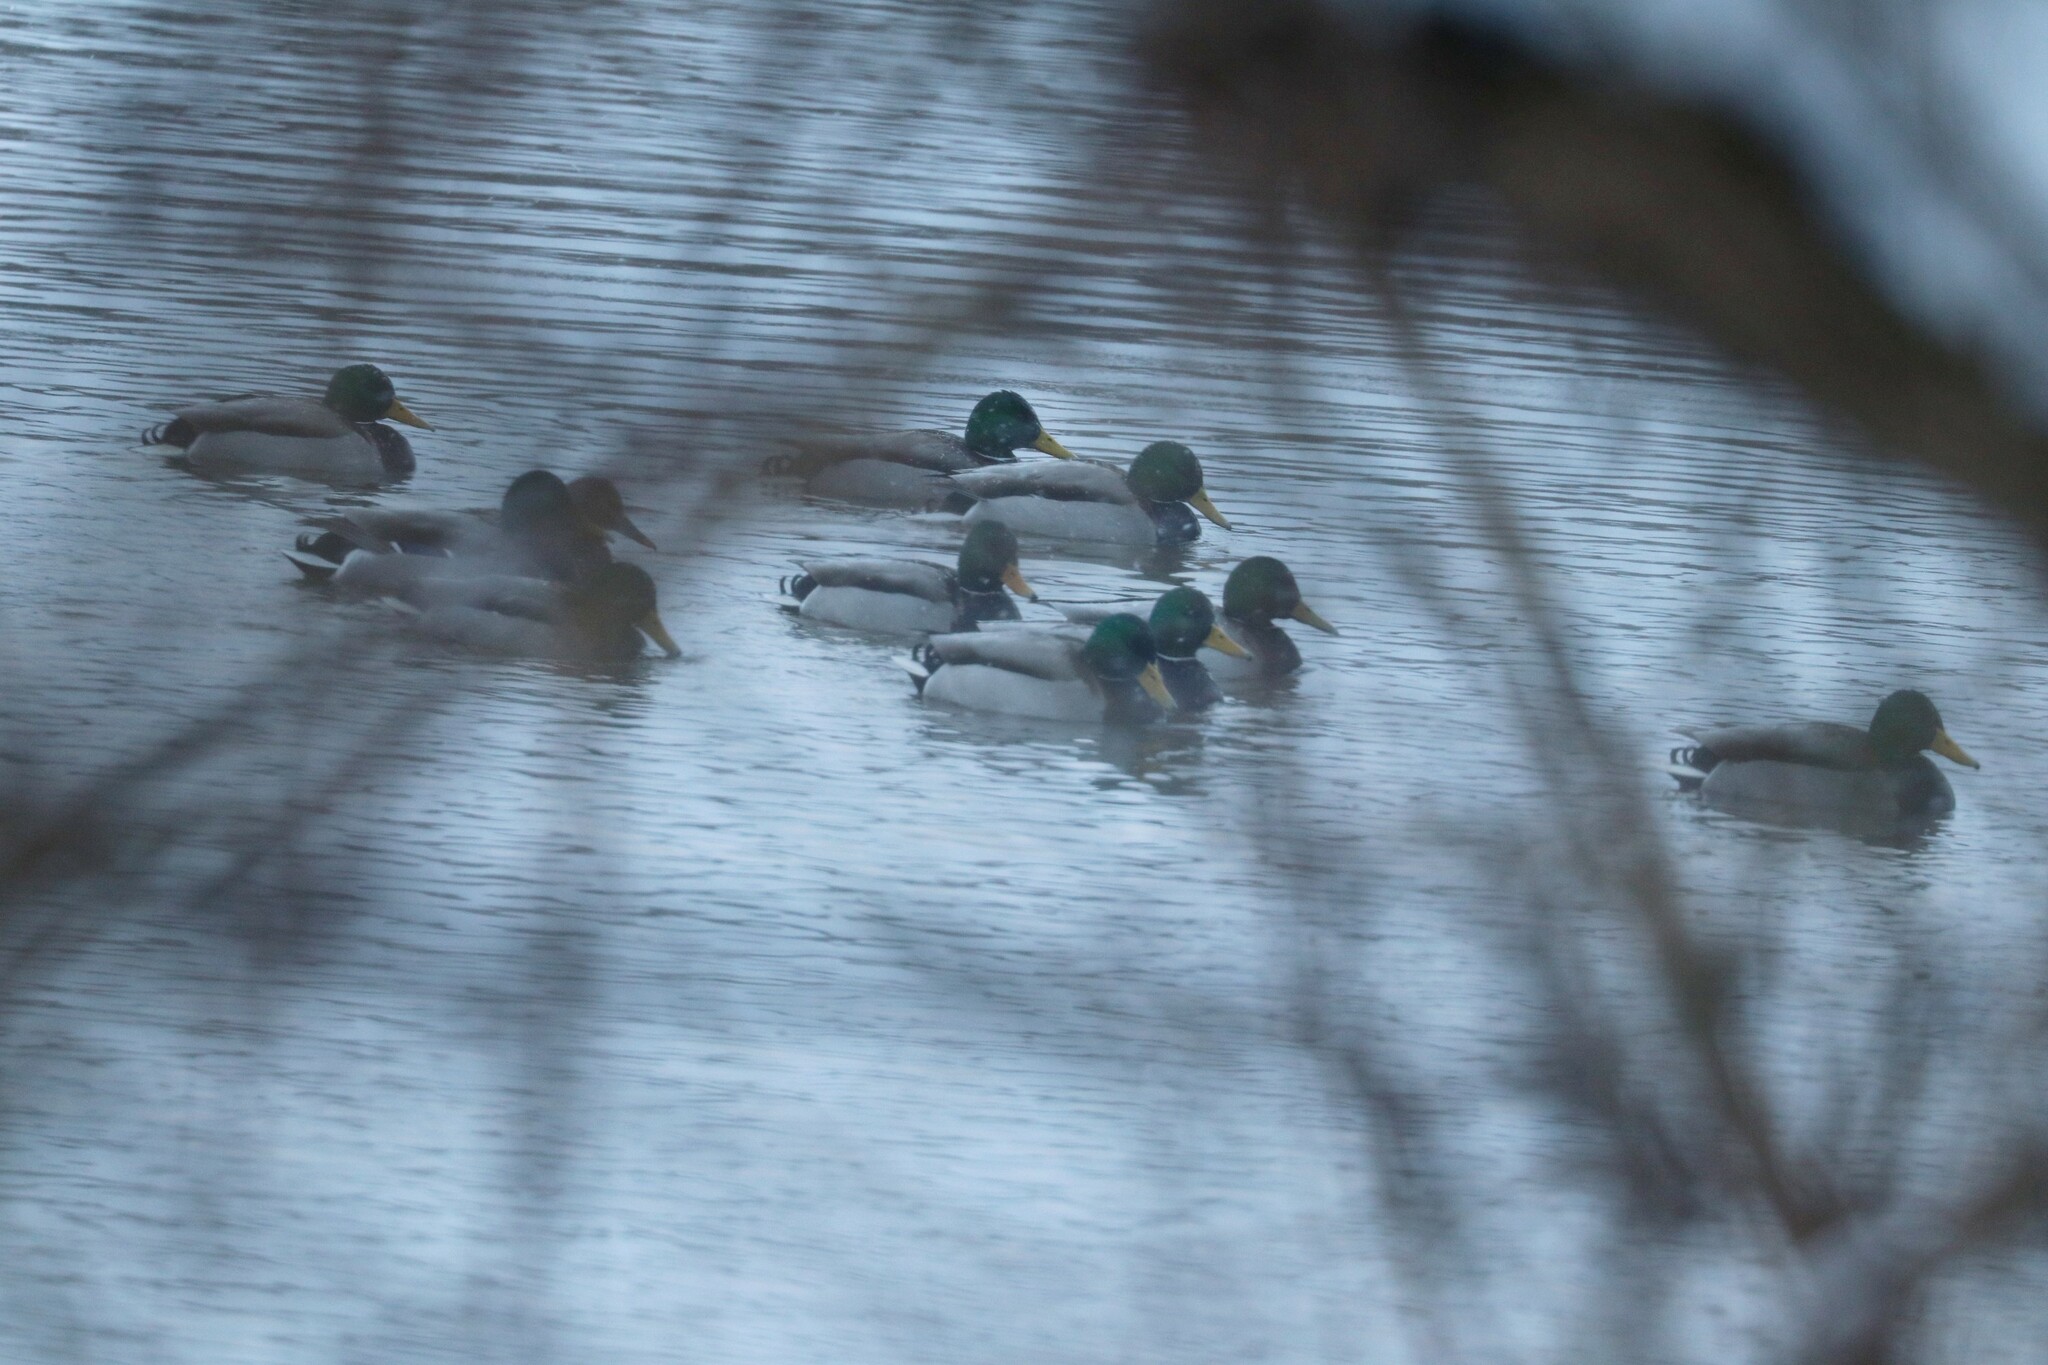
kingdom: Animalia
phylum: Chordata
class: Aves
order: Anseriformes
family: Anatidae
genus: Anas
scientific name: Anas platyrhynchos
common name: Mallard
